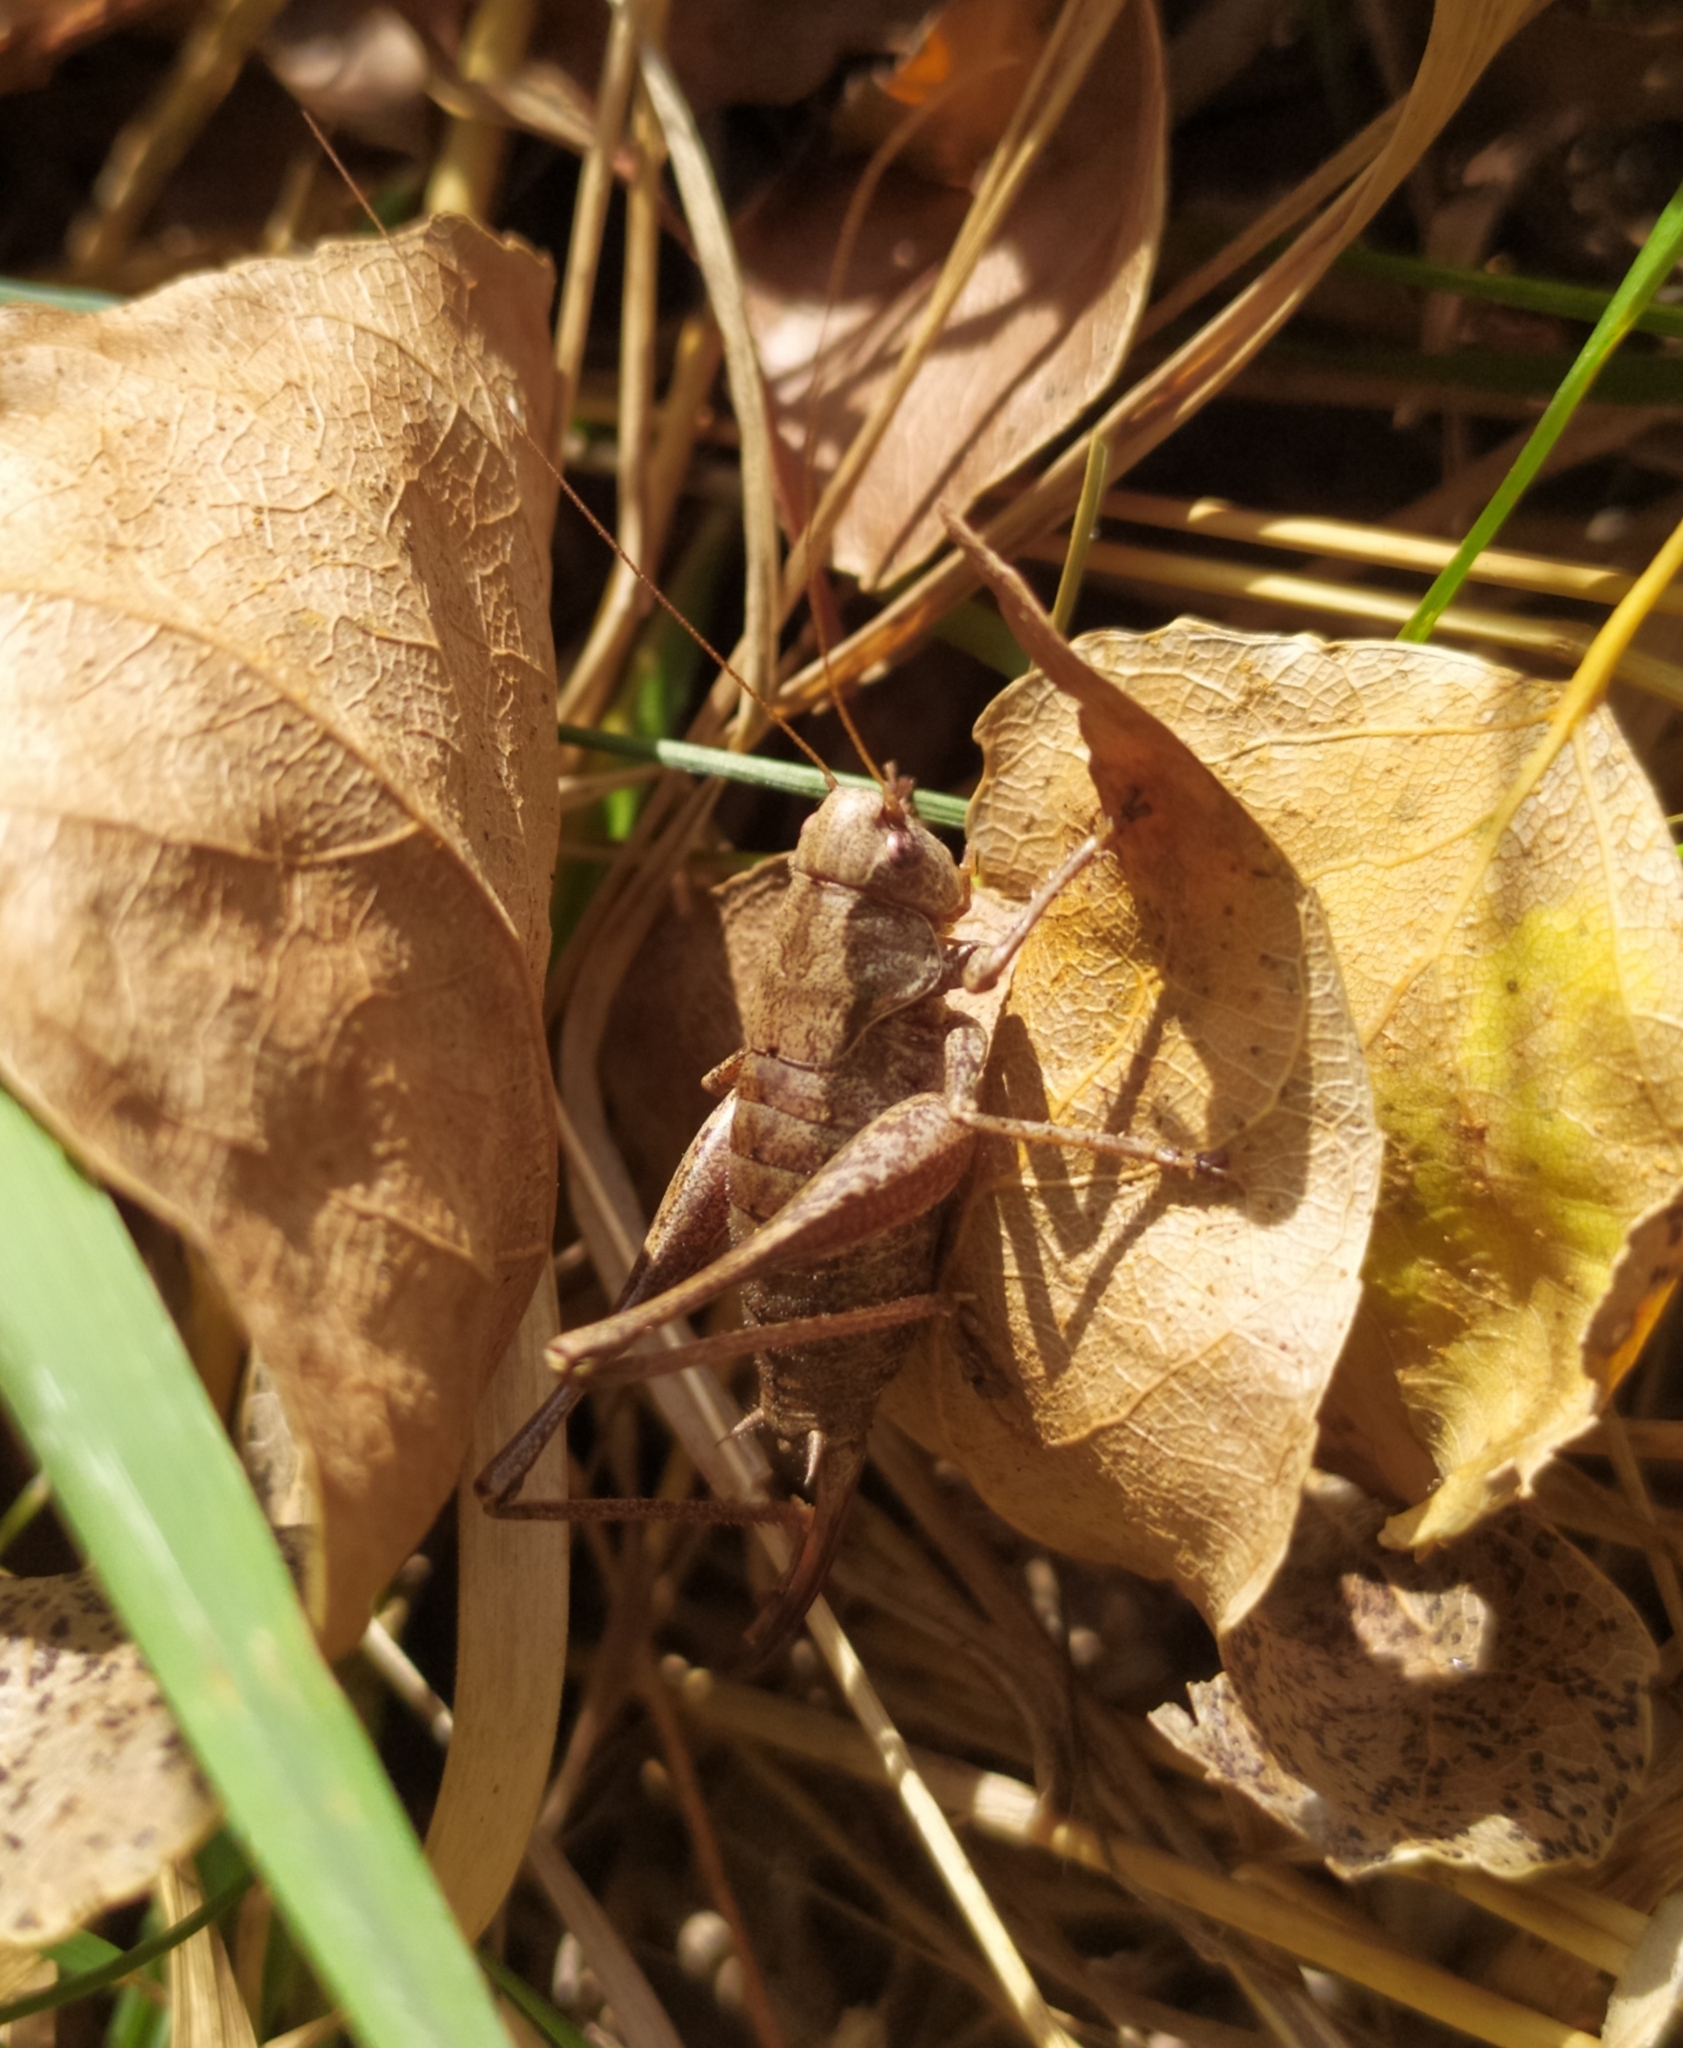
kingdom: Animalia
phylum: Arthropoda
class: Insecta
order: Orthoptera
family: Tettigoniidae
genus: Pholidoptera
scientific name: Pholidoptera griseoaptera
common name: Dark bush-cricket
